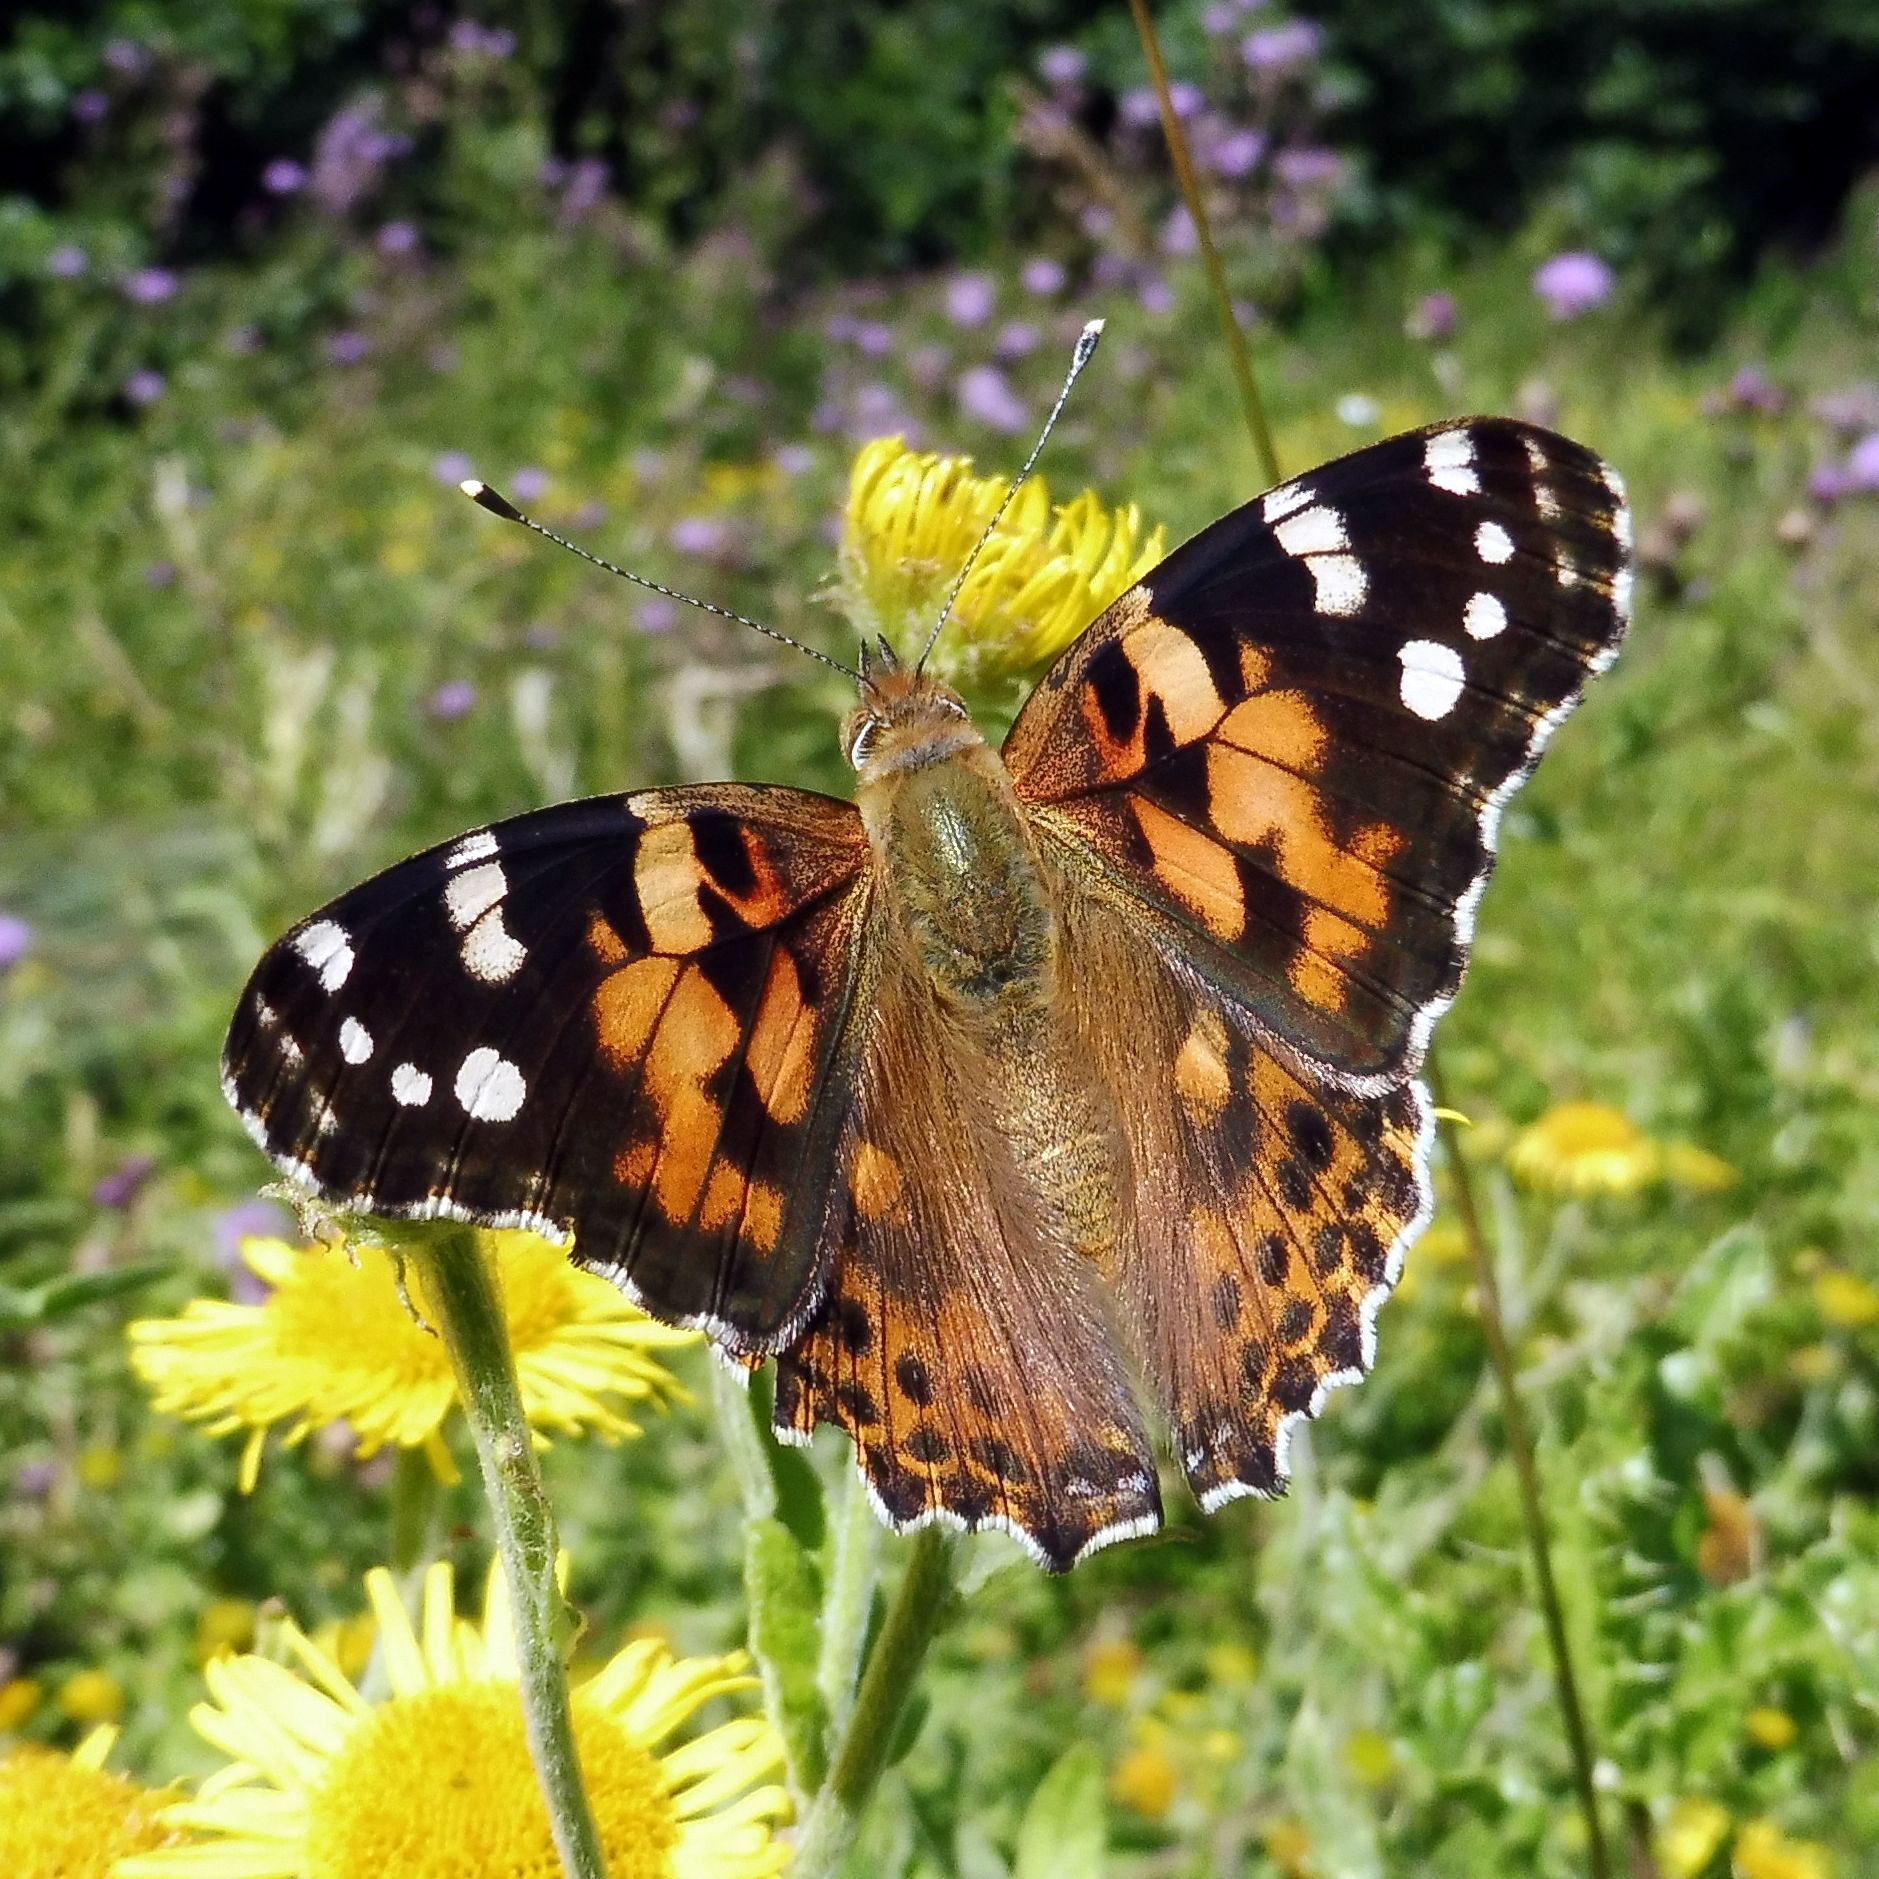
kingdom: Animalia
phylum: Arthropoda
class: Insecta
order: Lepidoptera
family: Nymphalidae
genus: Vanessa
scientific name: Vanessa cardui
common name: Painted lady
